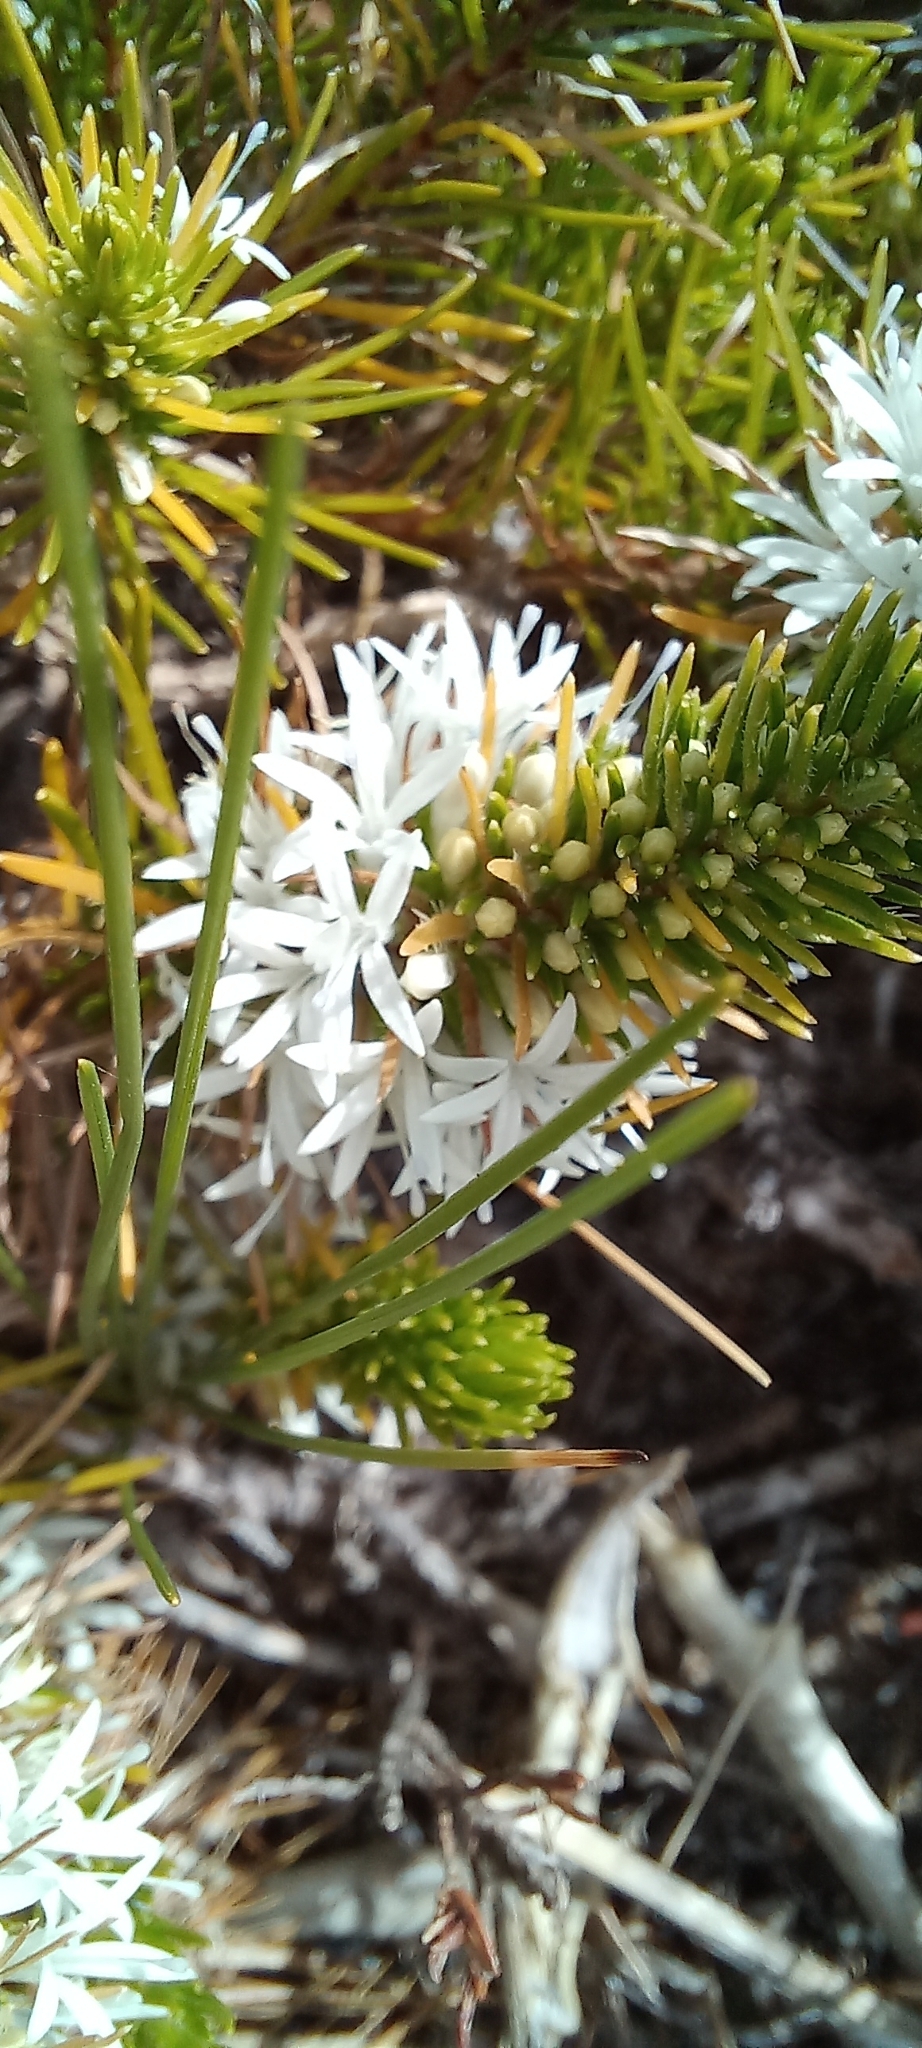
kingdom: Plantae
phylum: Tracheophyta
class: Magnoliopsida
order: Asterales
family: Campanulaceae
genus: Merciera
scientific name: Merciera leptoloba
